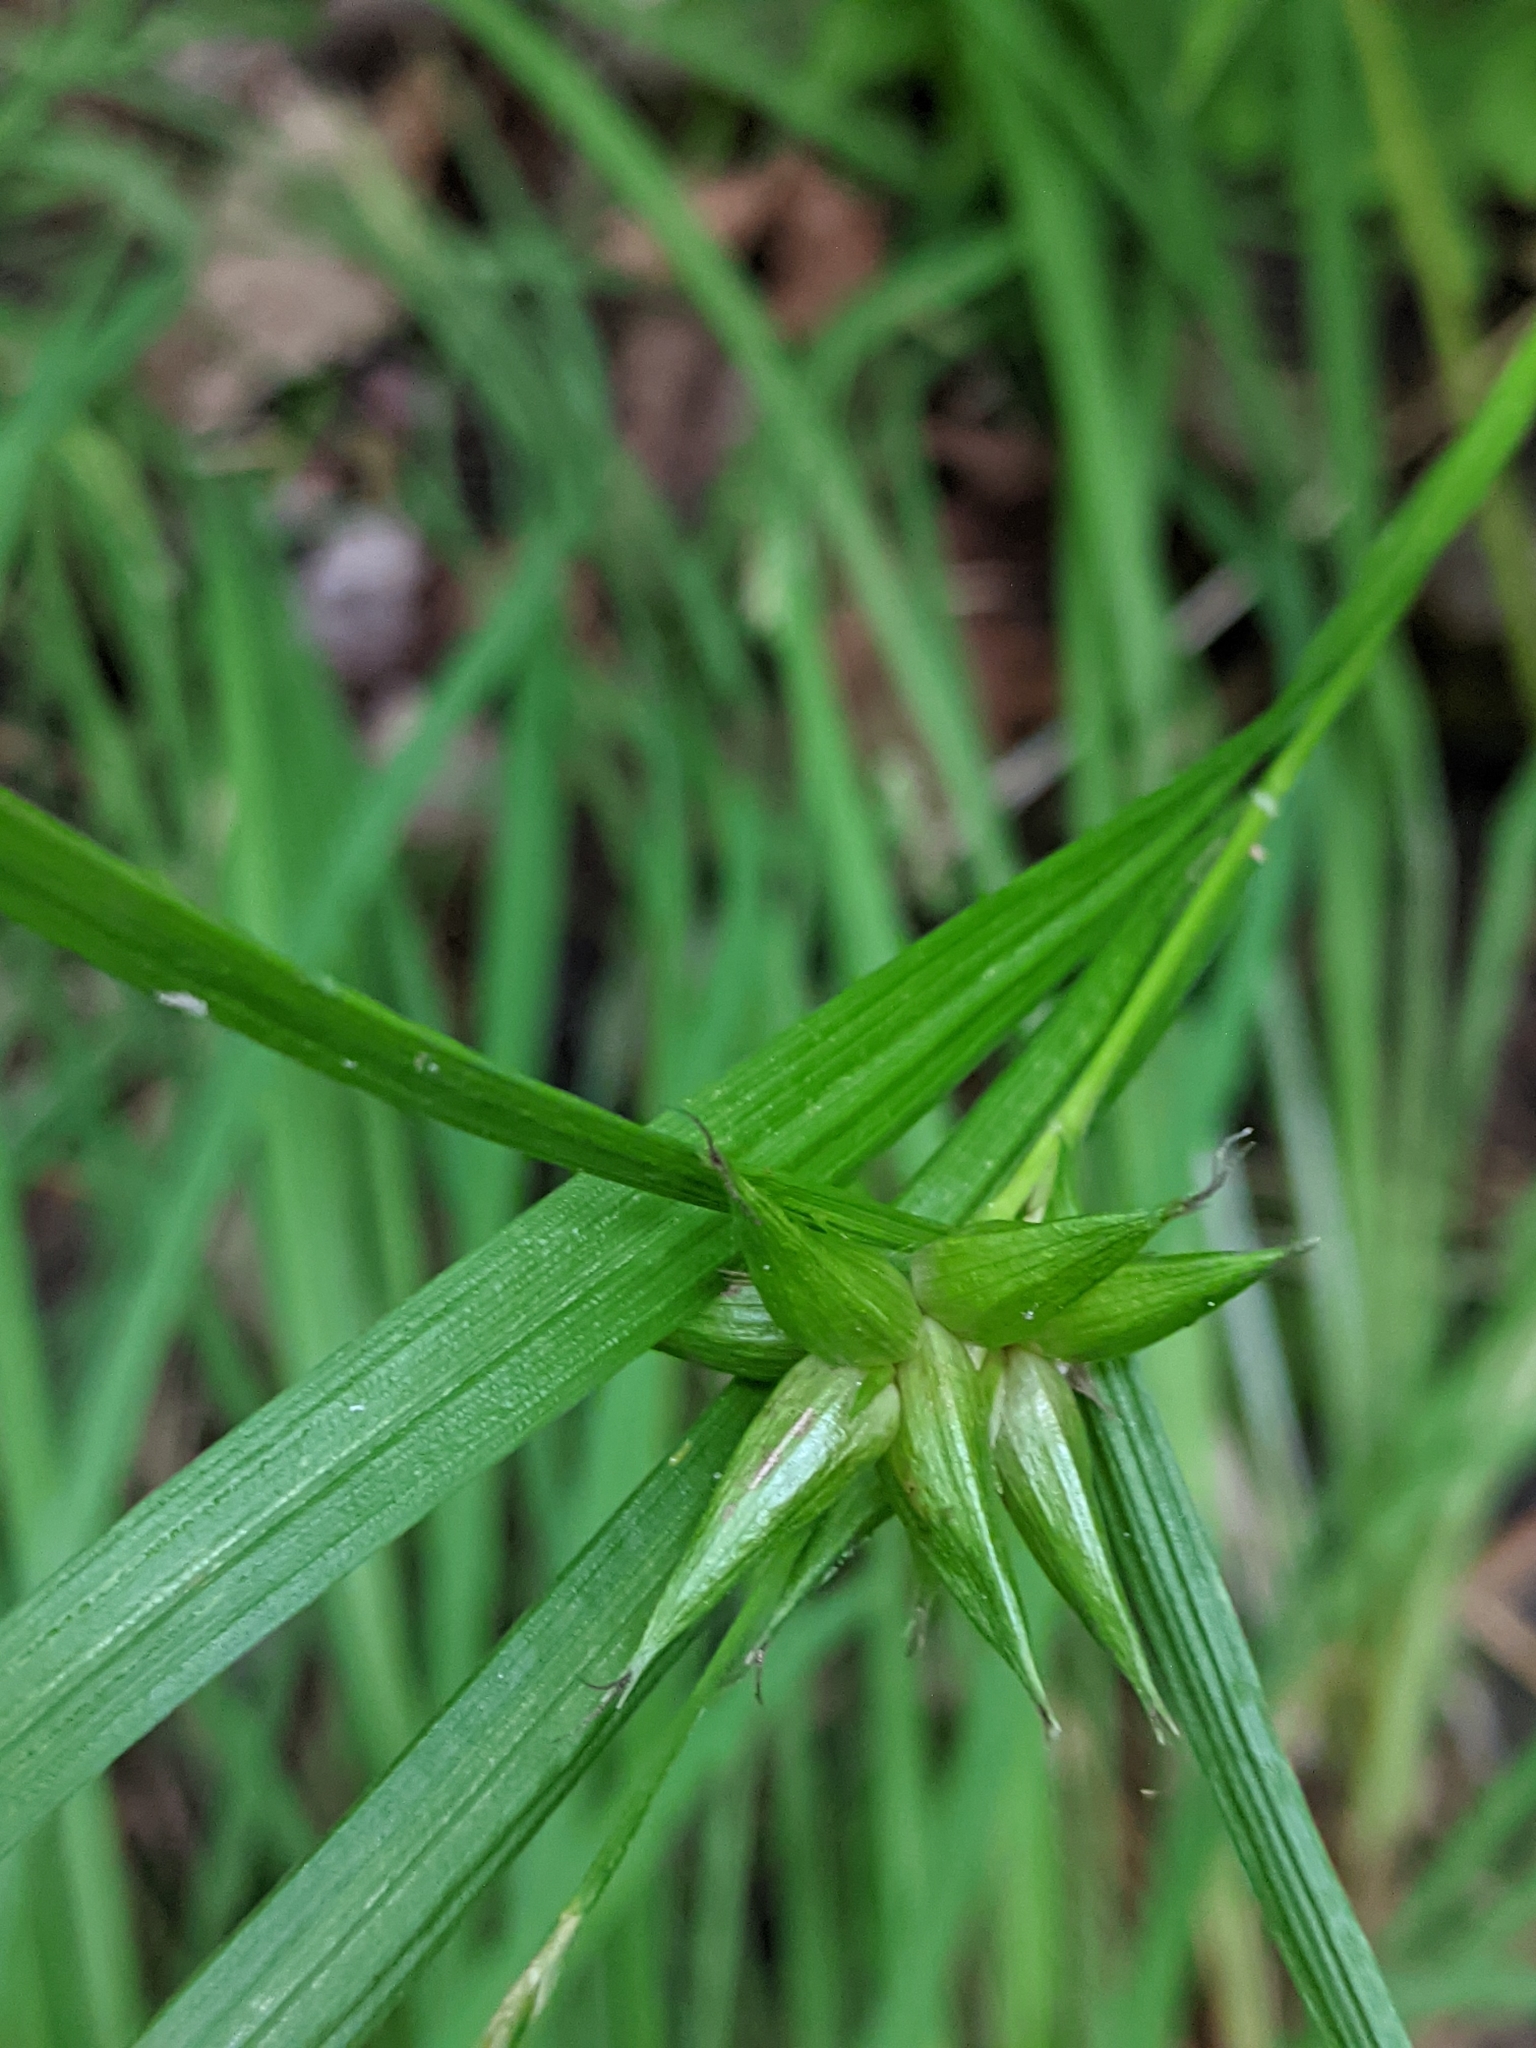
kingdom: Plantae
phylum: Tracheophyta
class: Liliopsida
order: Poales
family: Cyperaceae
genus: Carex
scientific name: Carex intumescens
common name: Greater bladder sedge
